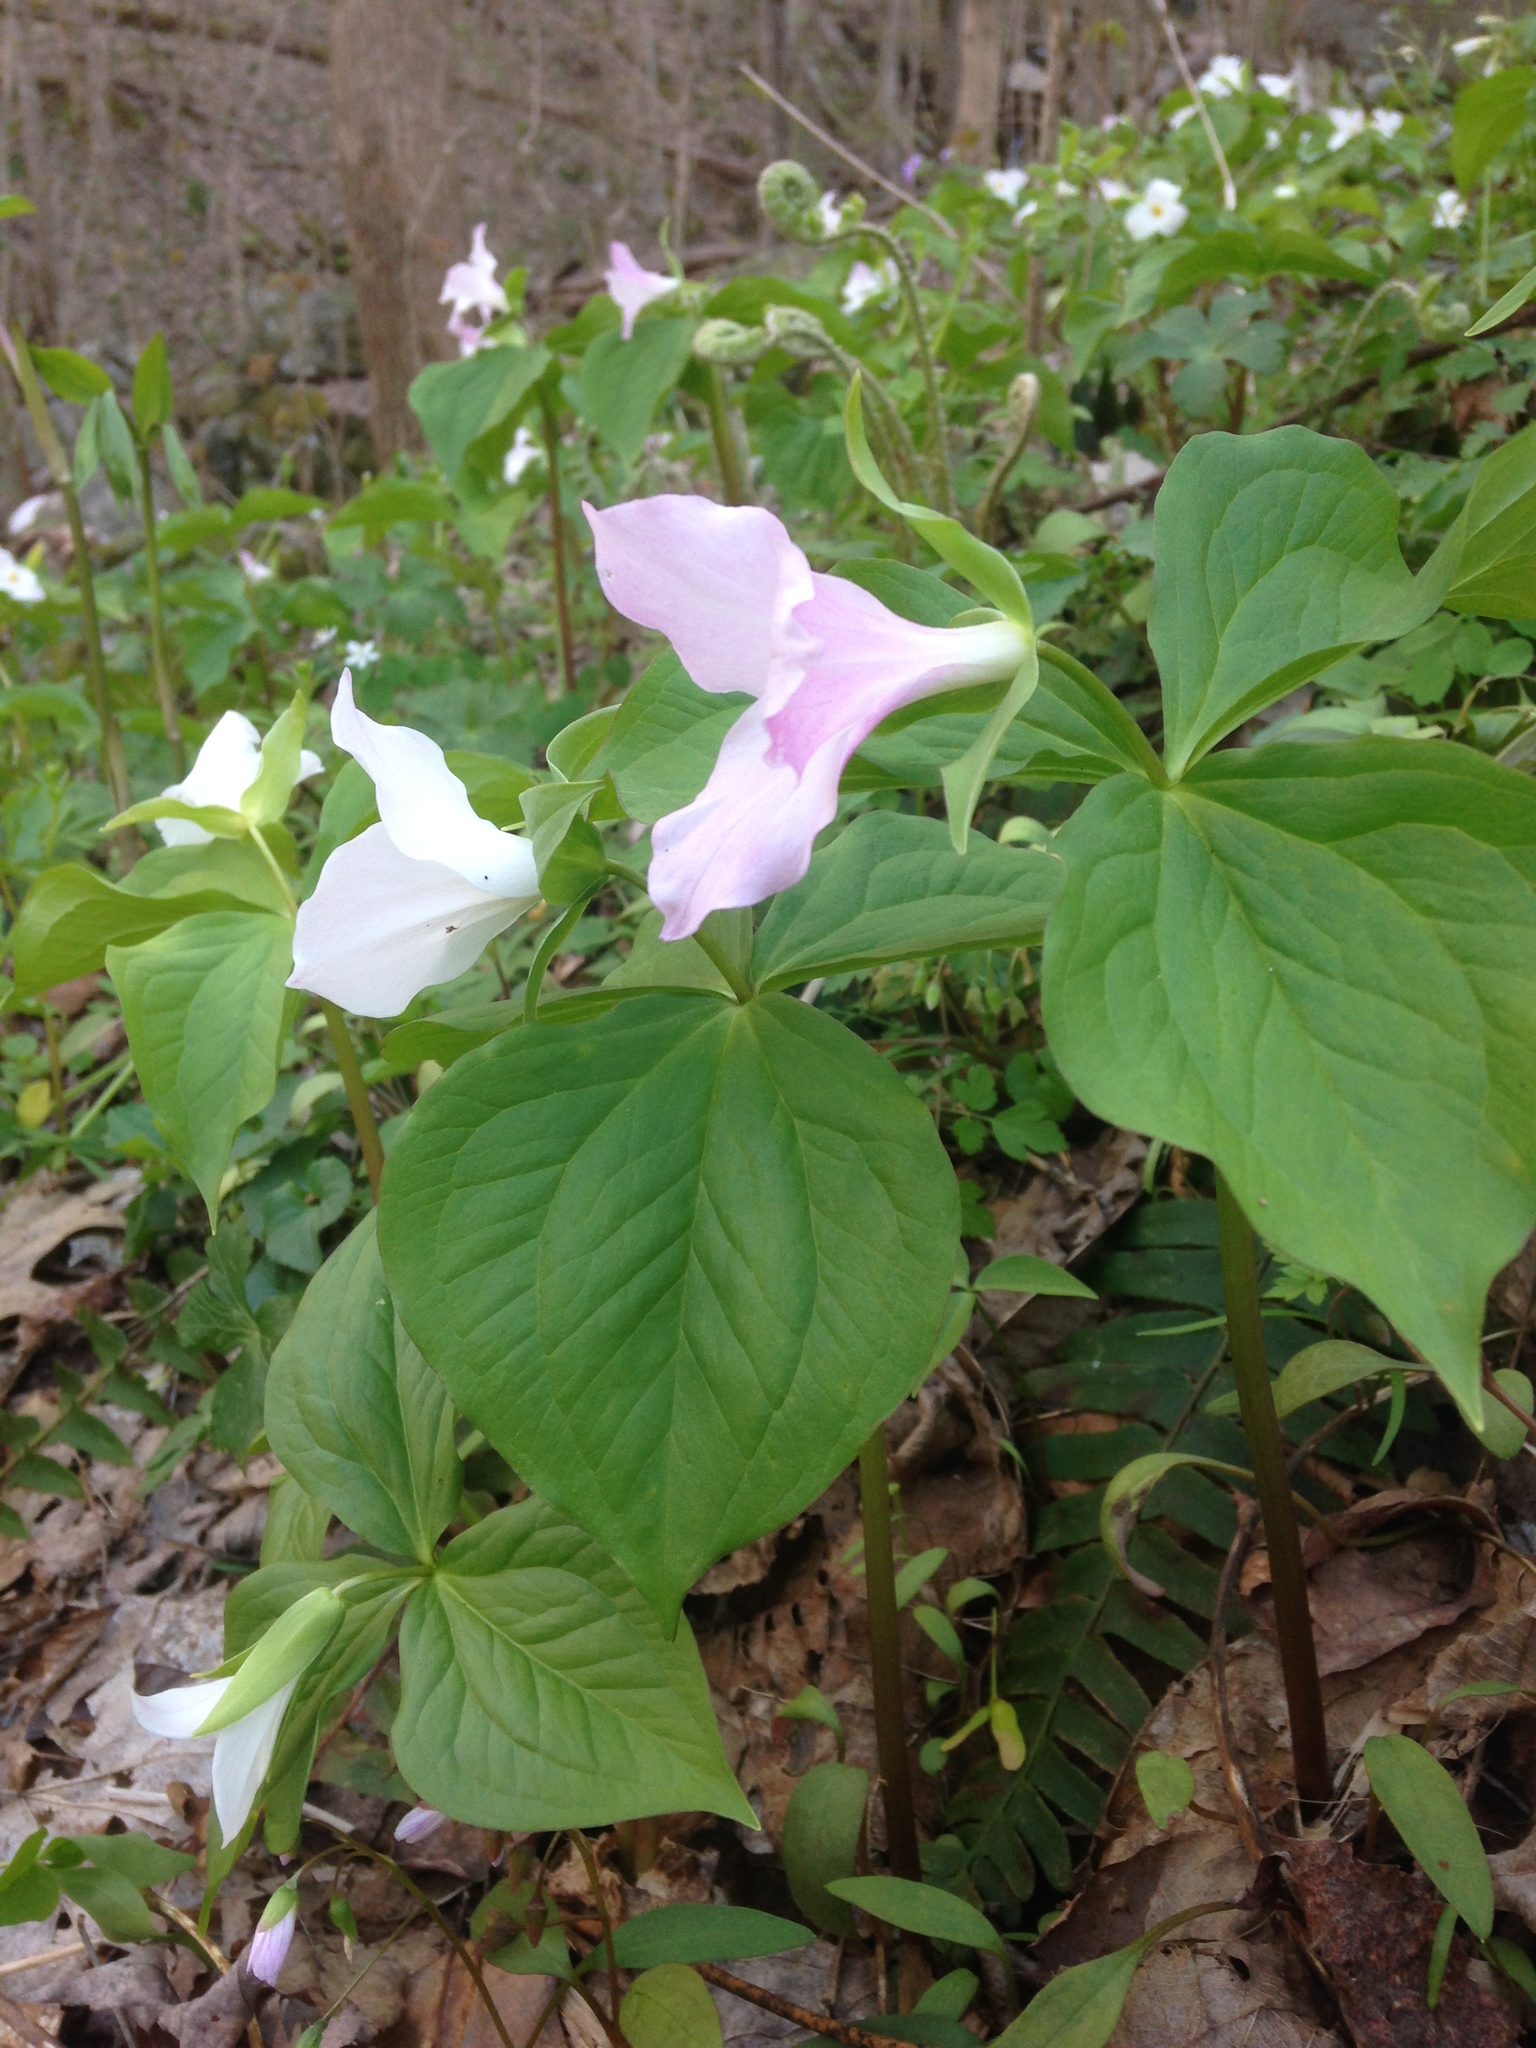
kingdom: Plantae
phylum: Tracheophyta
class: Liliopsida
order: Liliales
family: Melanthiaceae
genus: Trillium
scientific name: Trillium grandiflorum
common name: Great white trillium
